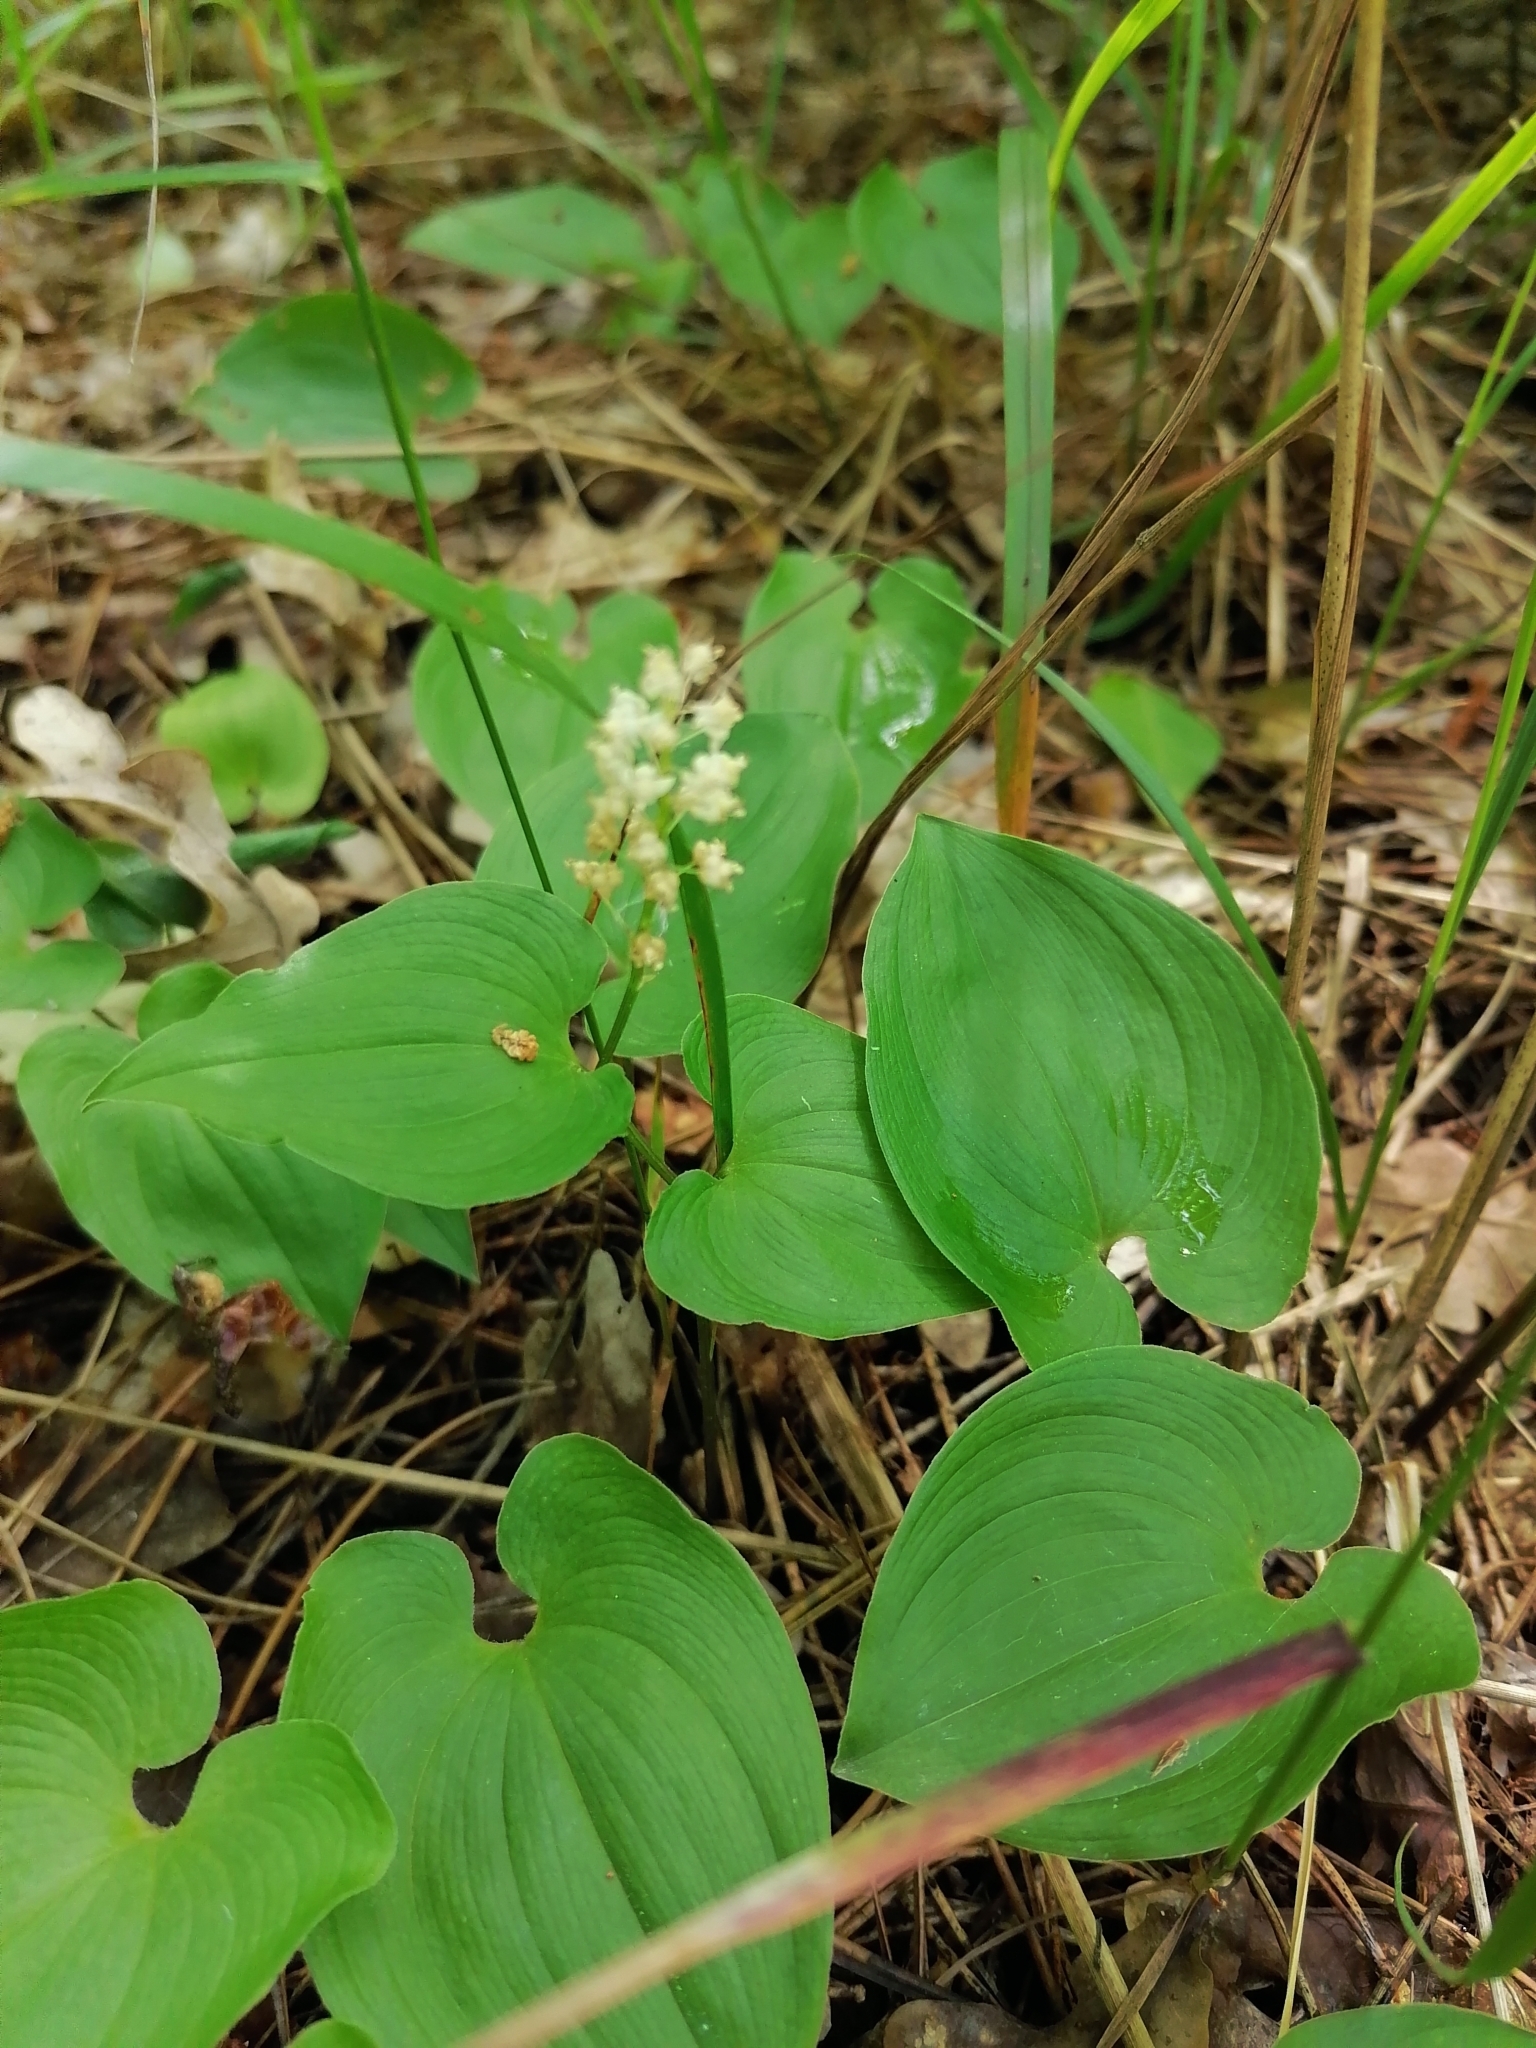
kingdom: Plantae
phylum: Tracheophyta
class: Liliopsida
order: Asparagales
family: Asparagaceae
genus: Maianthemum
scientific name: Maianthemum bifolium
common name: May lily
